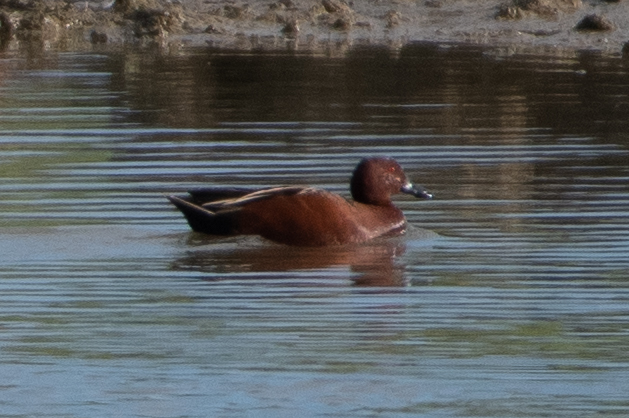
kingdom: Animalia
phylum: Chordata
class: Aves
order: Anseriformes
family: Anatidae
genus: Spatula
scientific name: Spatula cyanoptera
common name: Cinnamon teal
